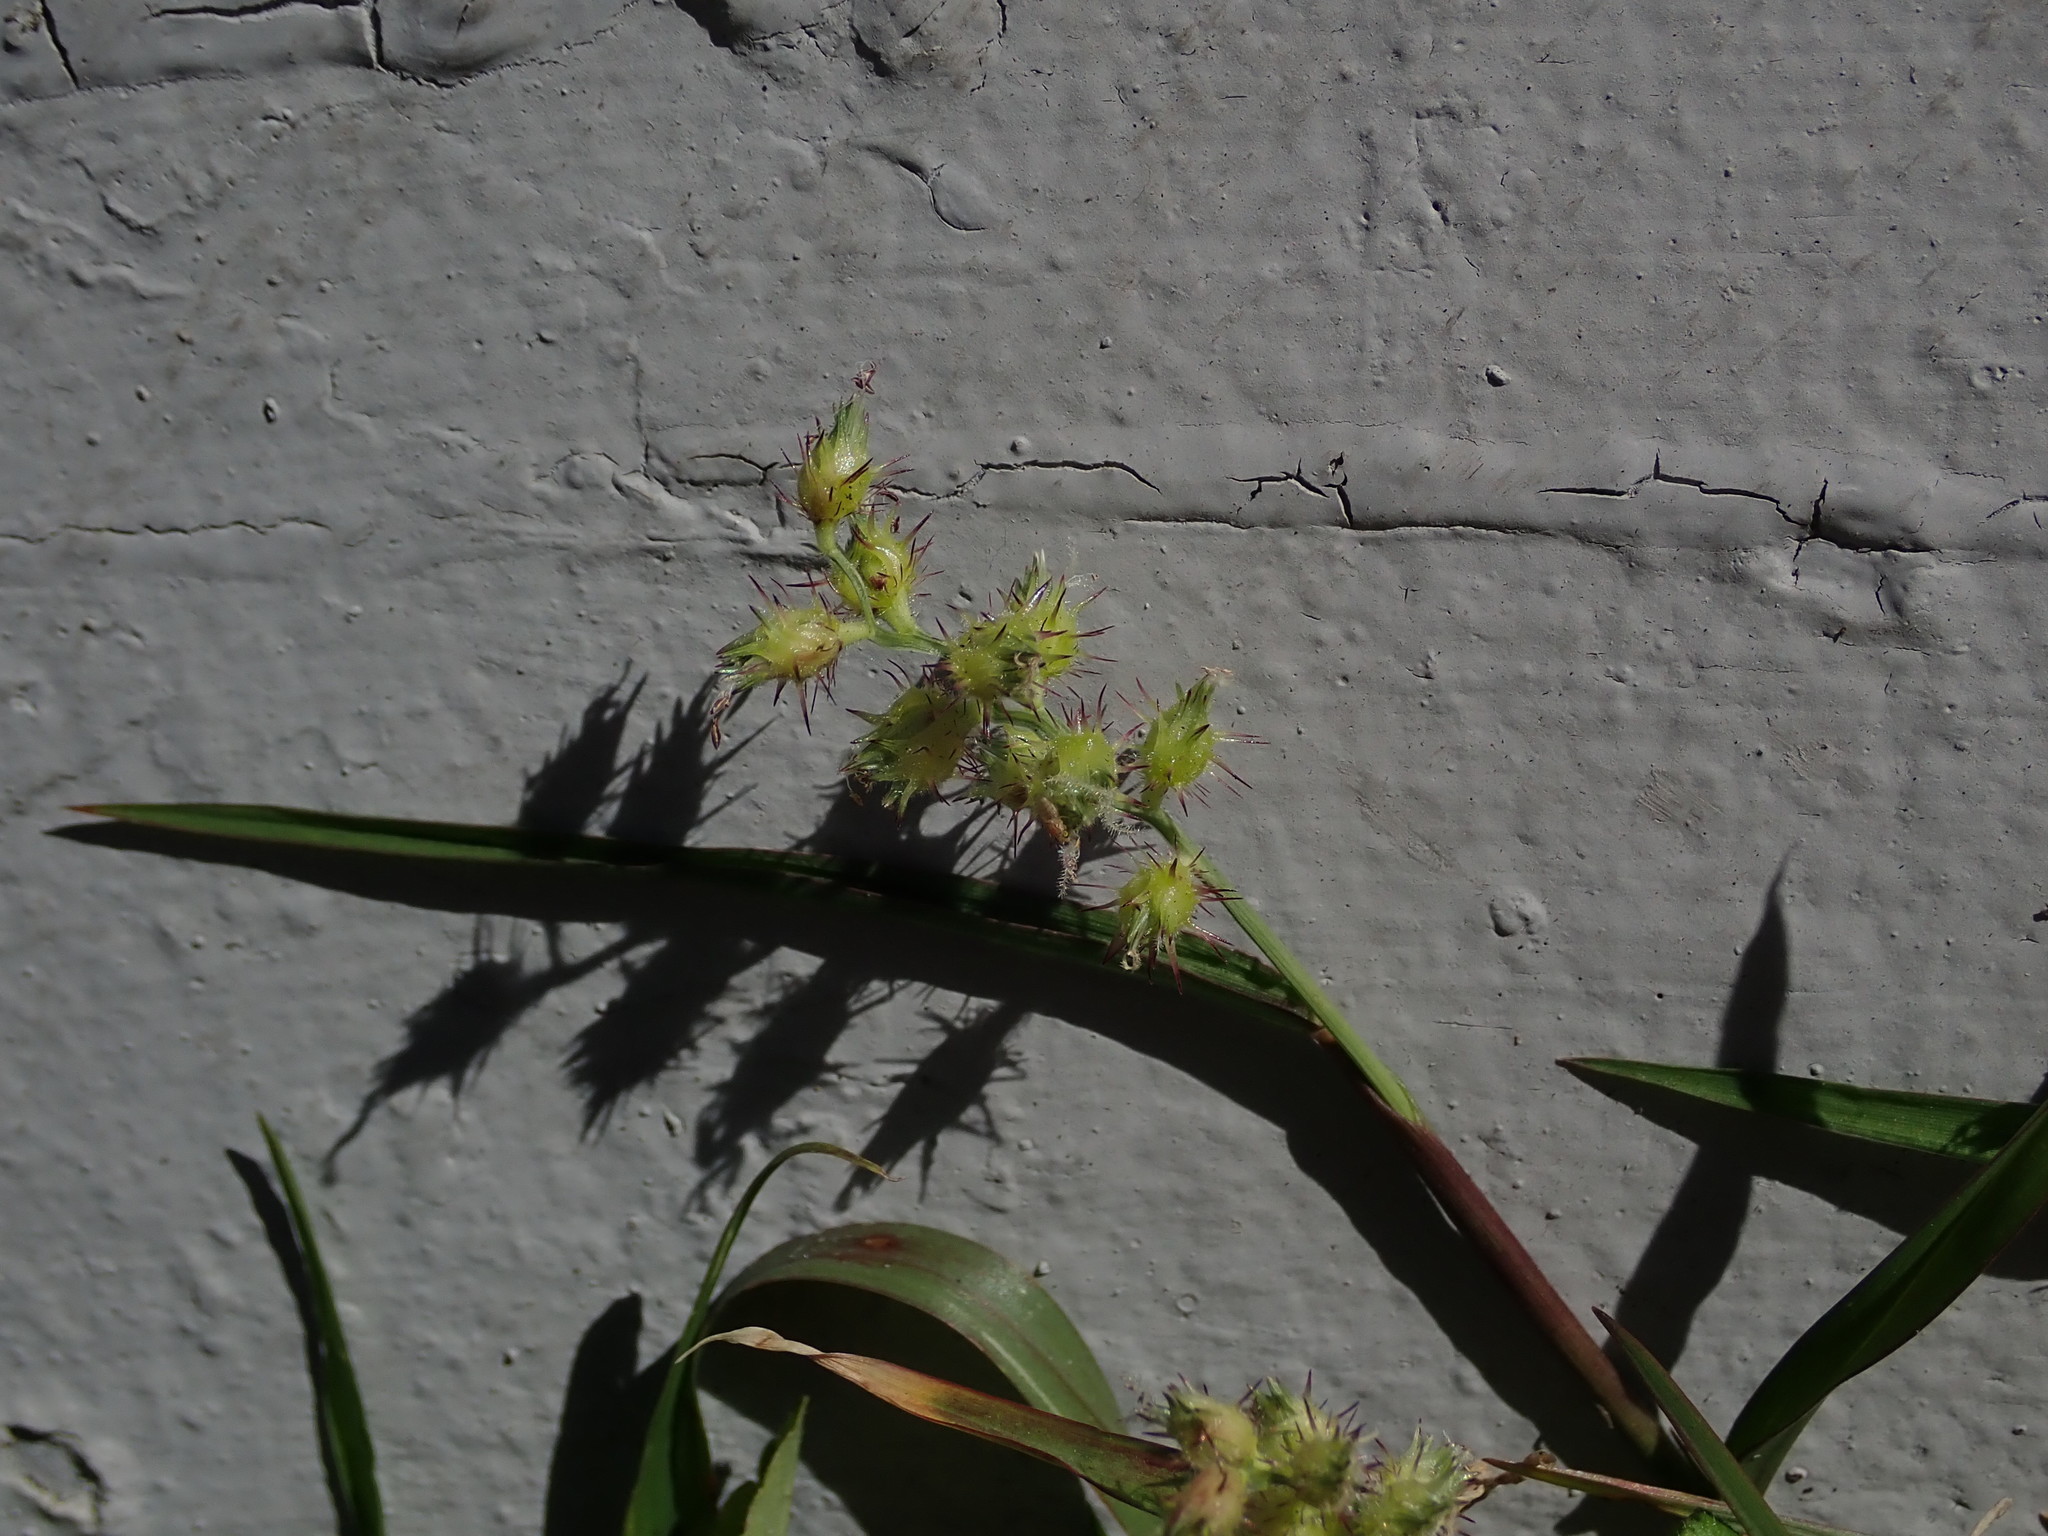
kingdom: Plantae
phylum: Tracheophyta
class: Liliopsida
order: Poales
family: Poaceae
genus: Cenchrus
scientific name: Cenchrus echinatus
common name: Southern sandbur
